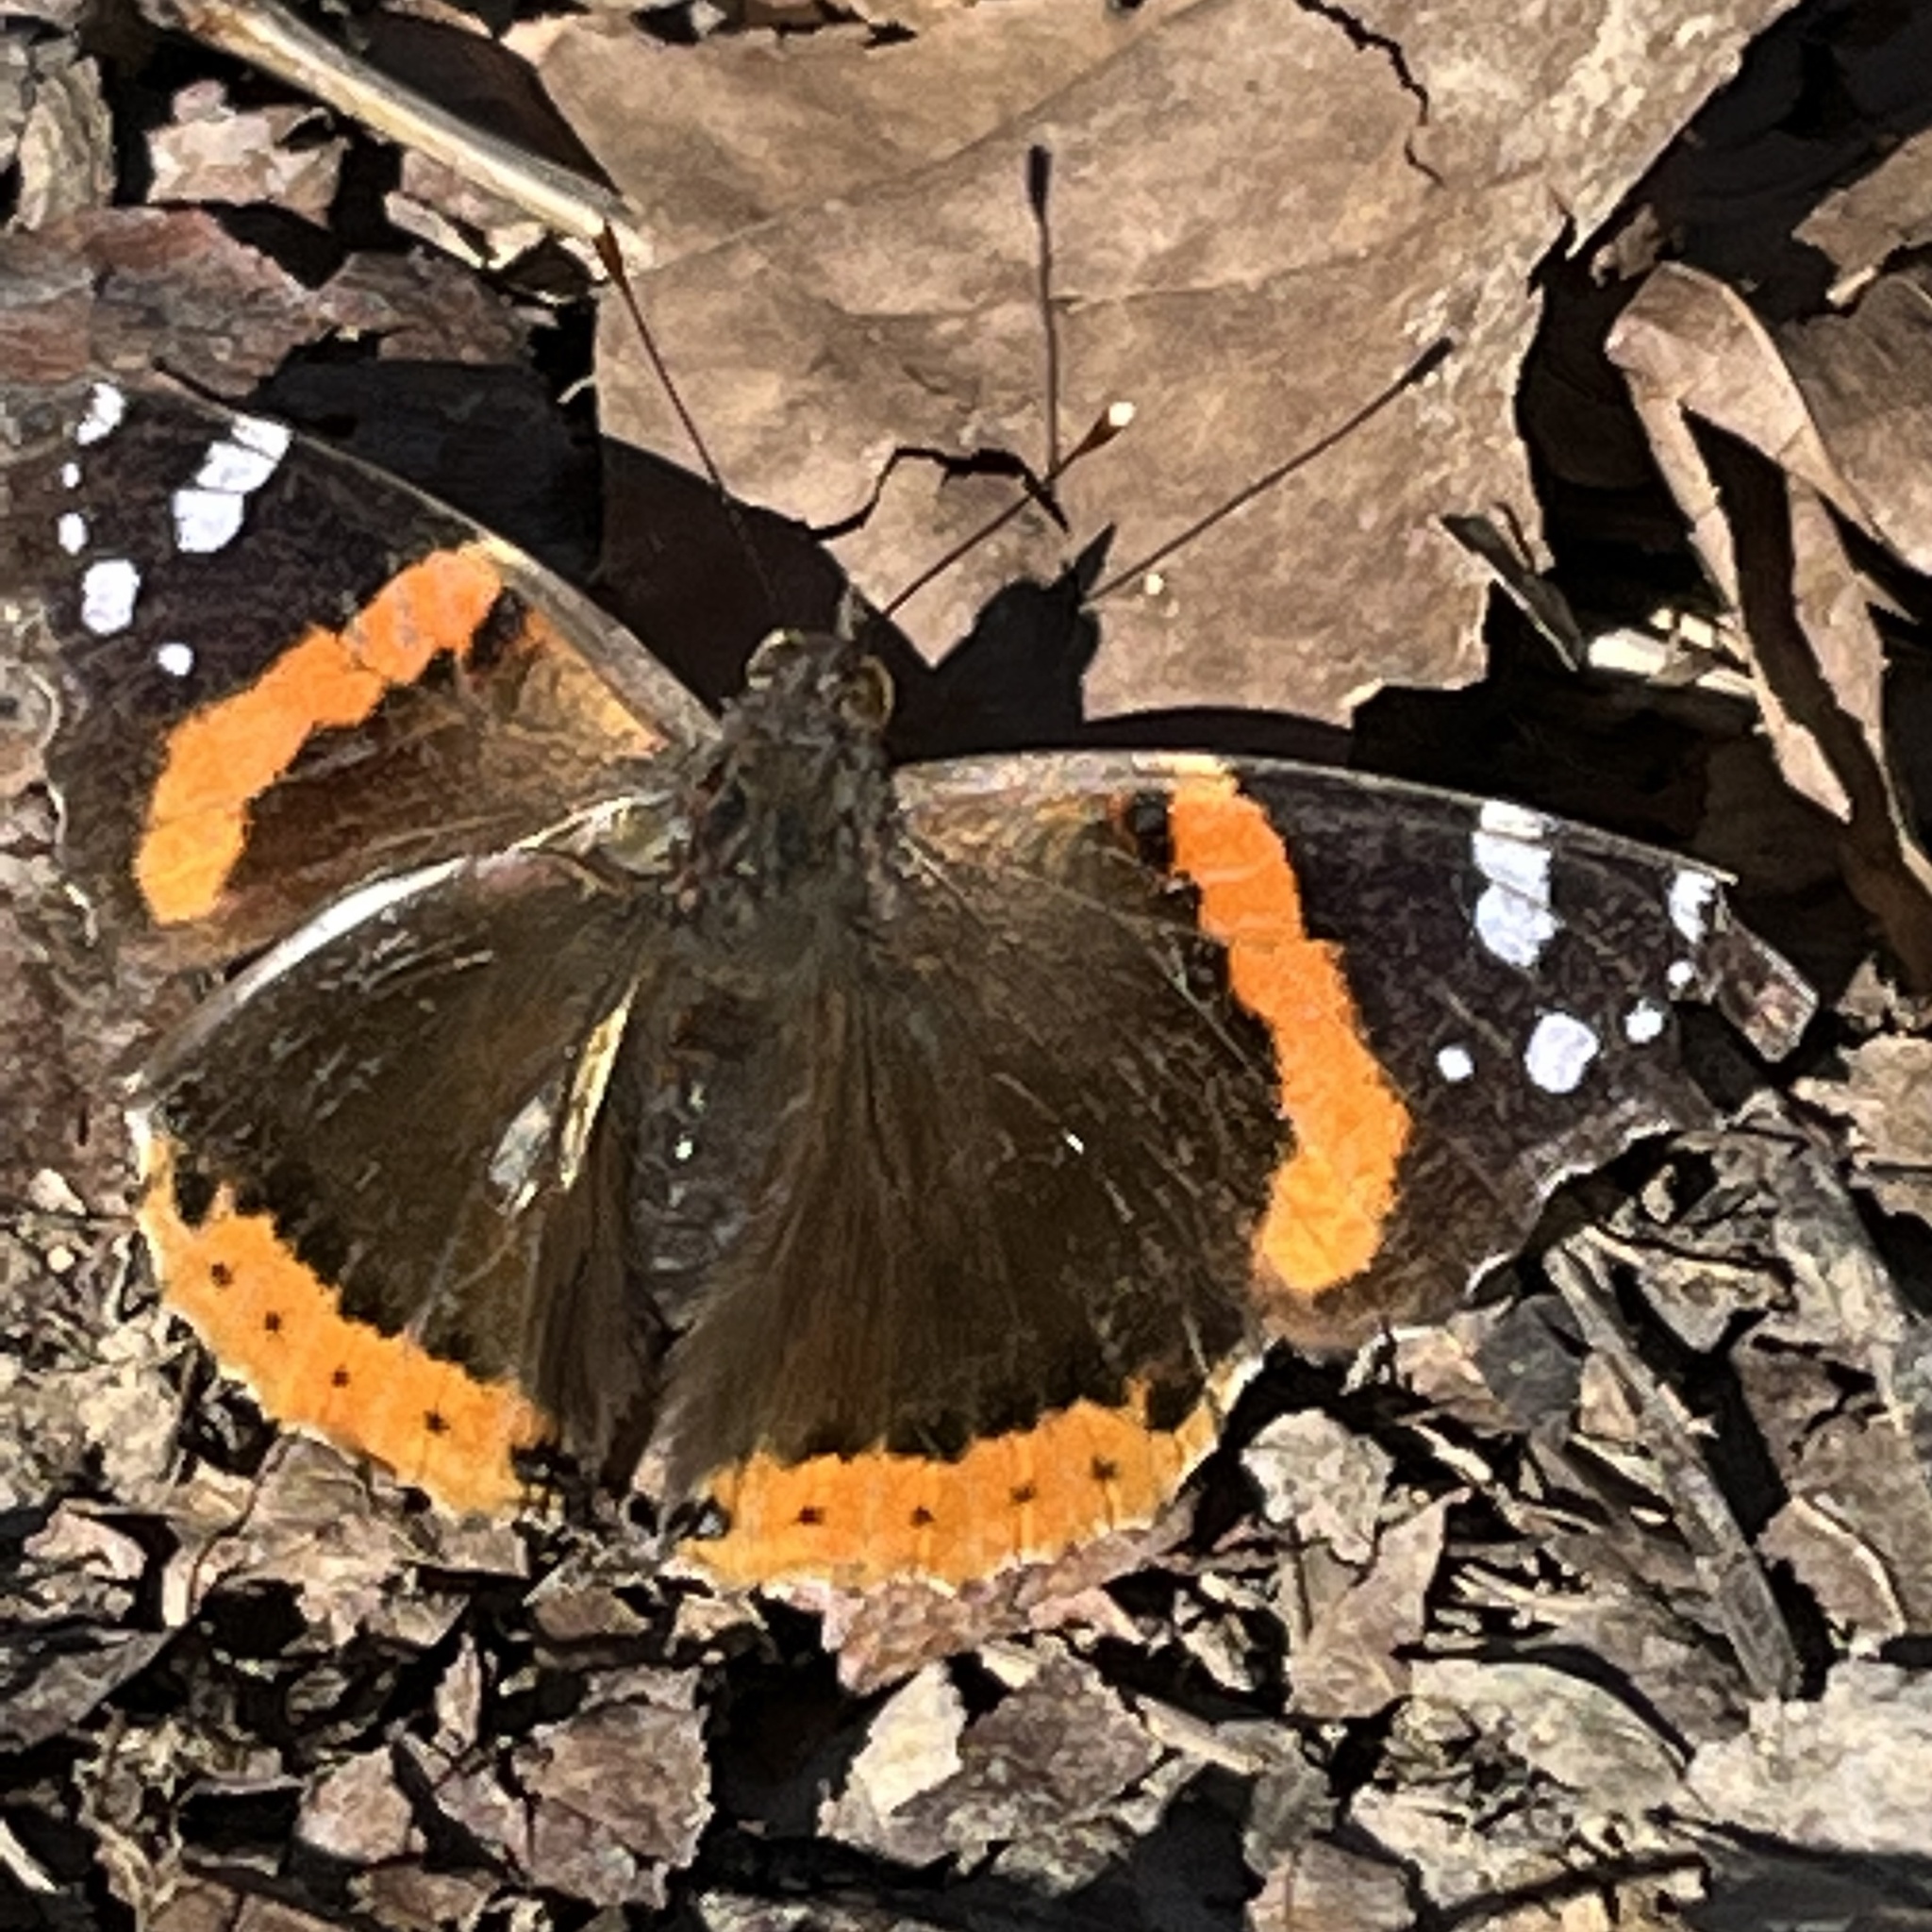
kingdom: Animalia
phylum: Arthropoda
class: Insecta
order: Lepidoptera
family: Nymphalidae
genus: Vanessa
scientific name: Vanessa atalanta
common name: Red admiral
